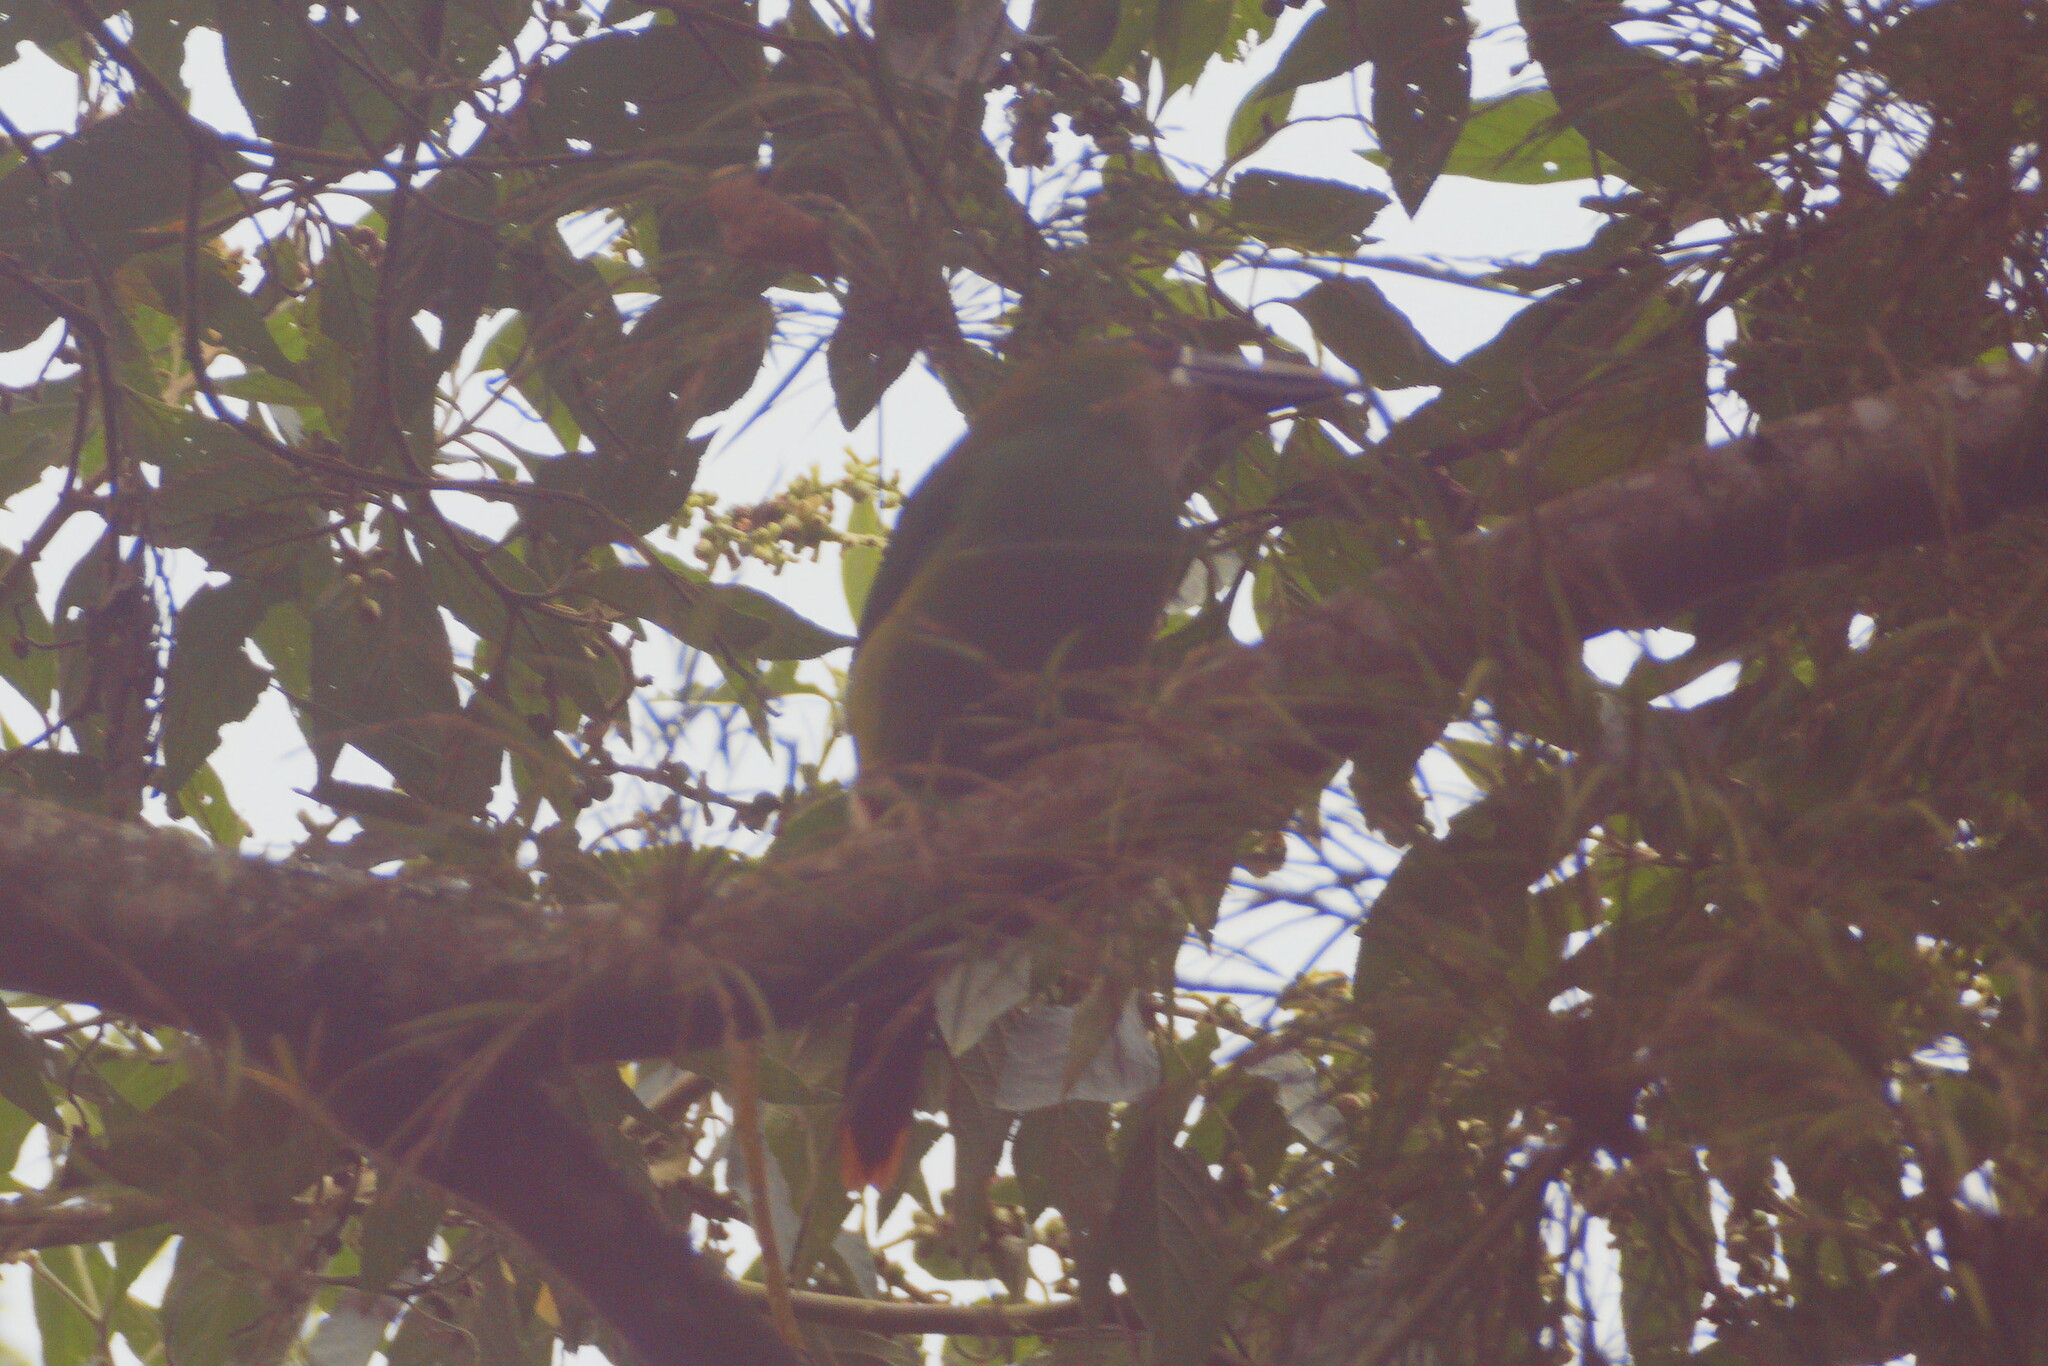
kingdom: Animalia
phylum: Chordata
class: Aves
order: Piciformes
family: Ramphastidae
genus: Aulacorhynchus
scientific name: Aulacorhynchus albivitta
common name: White-throated toucanet
